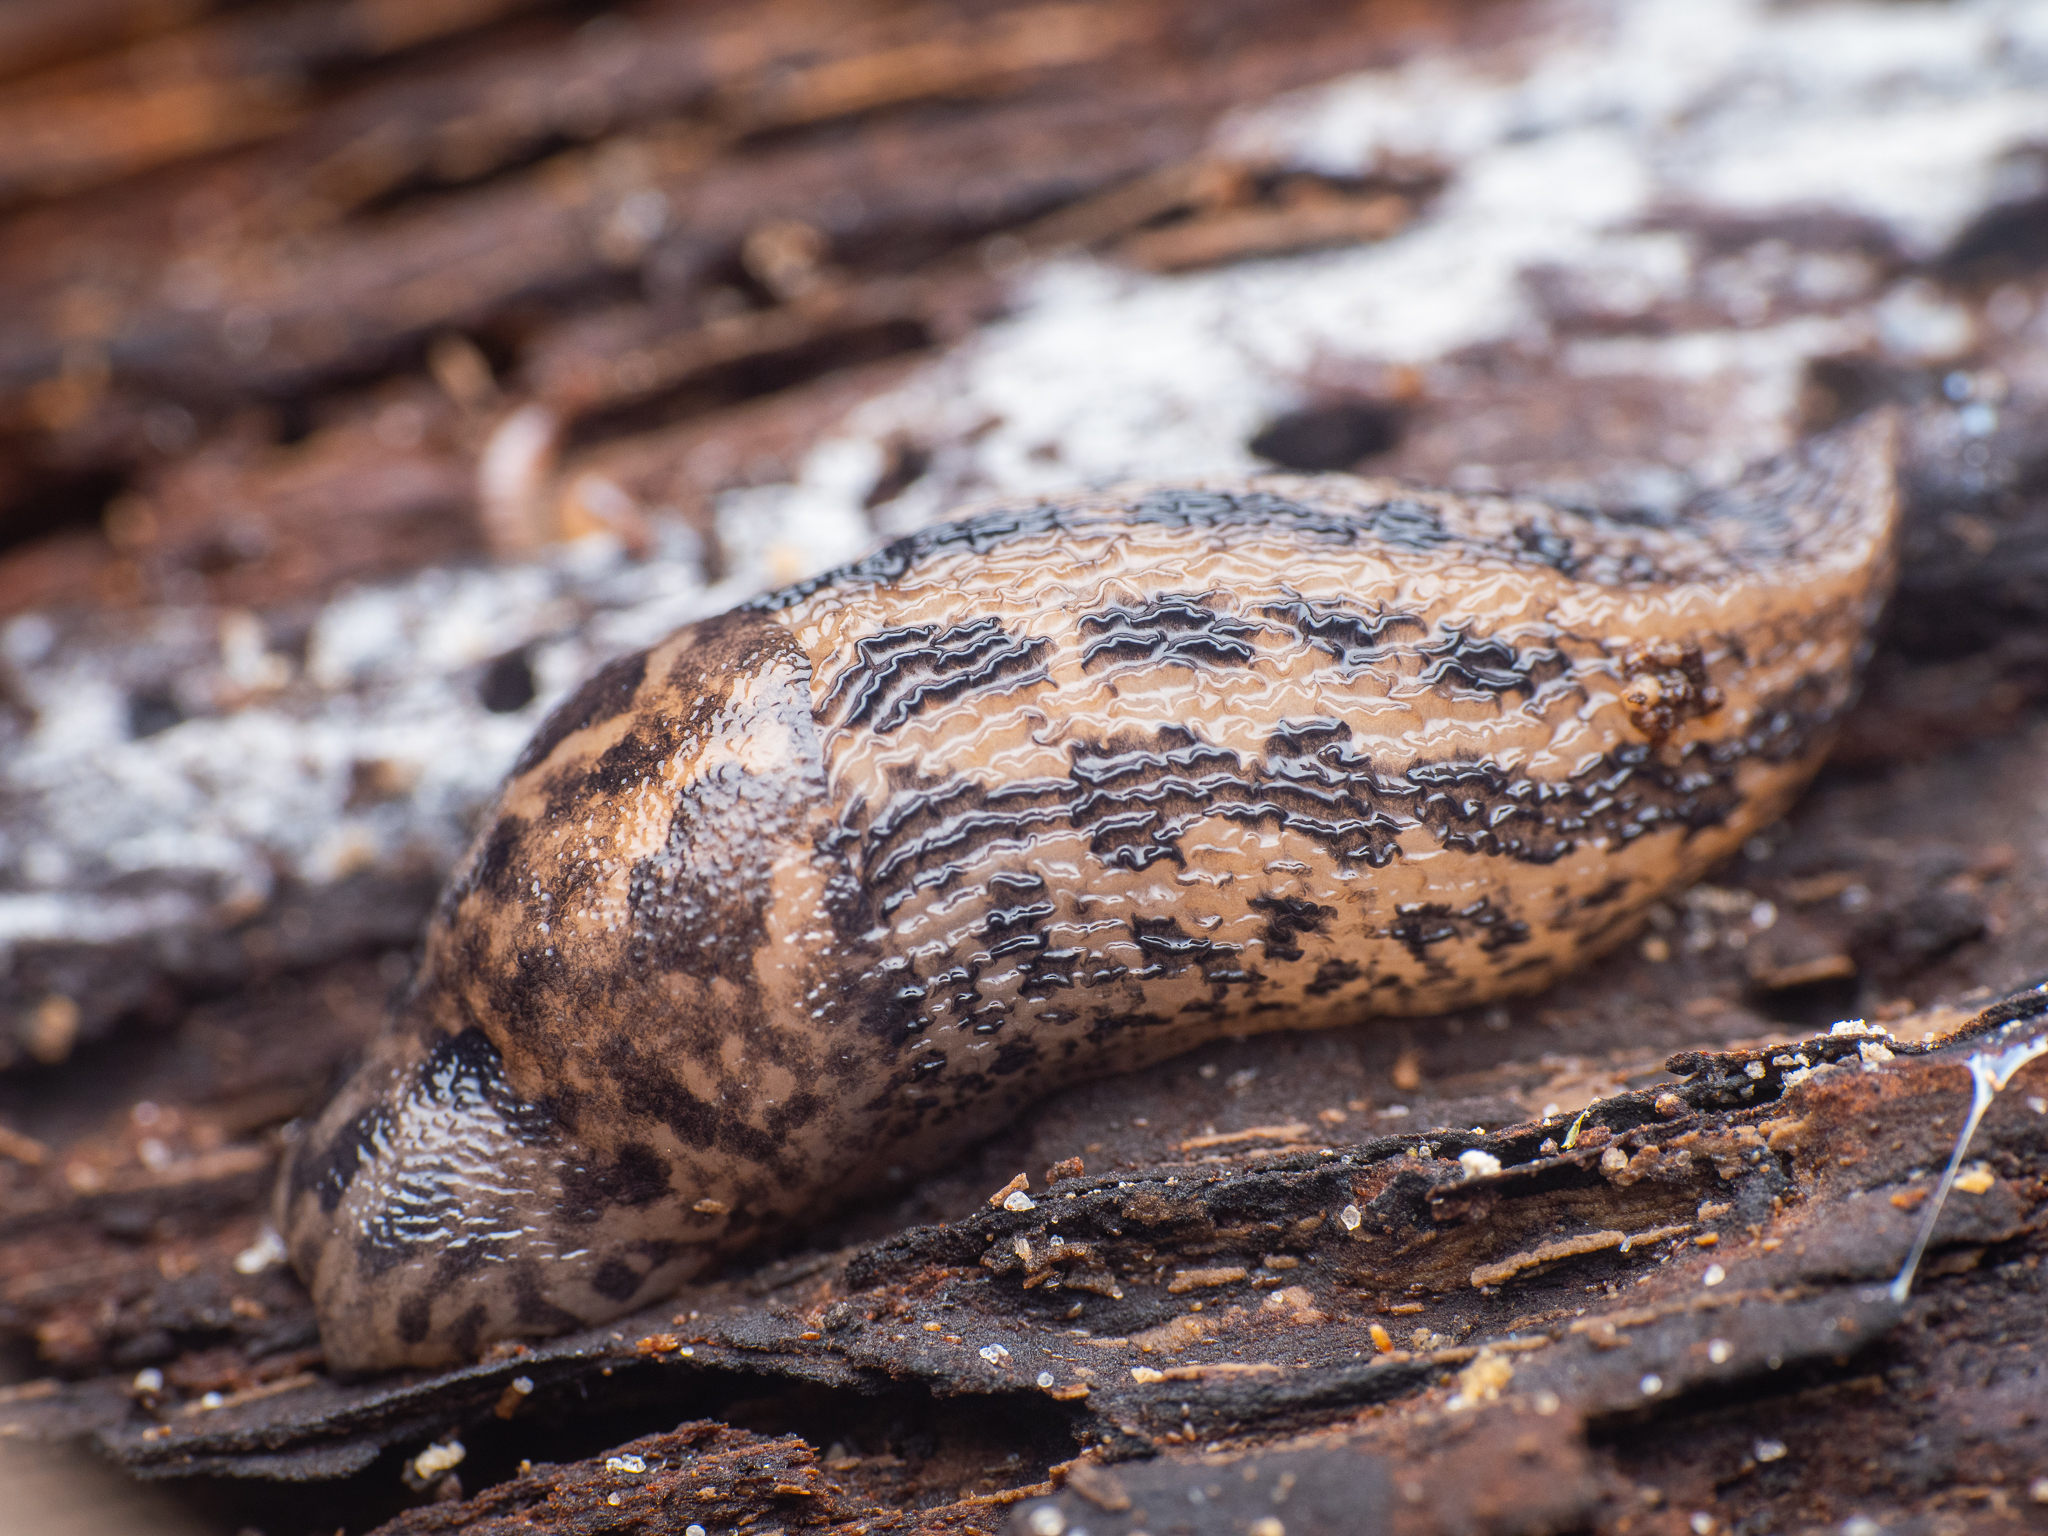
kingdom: Animalia
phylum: Mollusca
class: Gastropoda
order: Stylommatophora
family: Limacidae
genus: Limax
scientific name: Limax maximus
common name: Great grey slug
